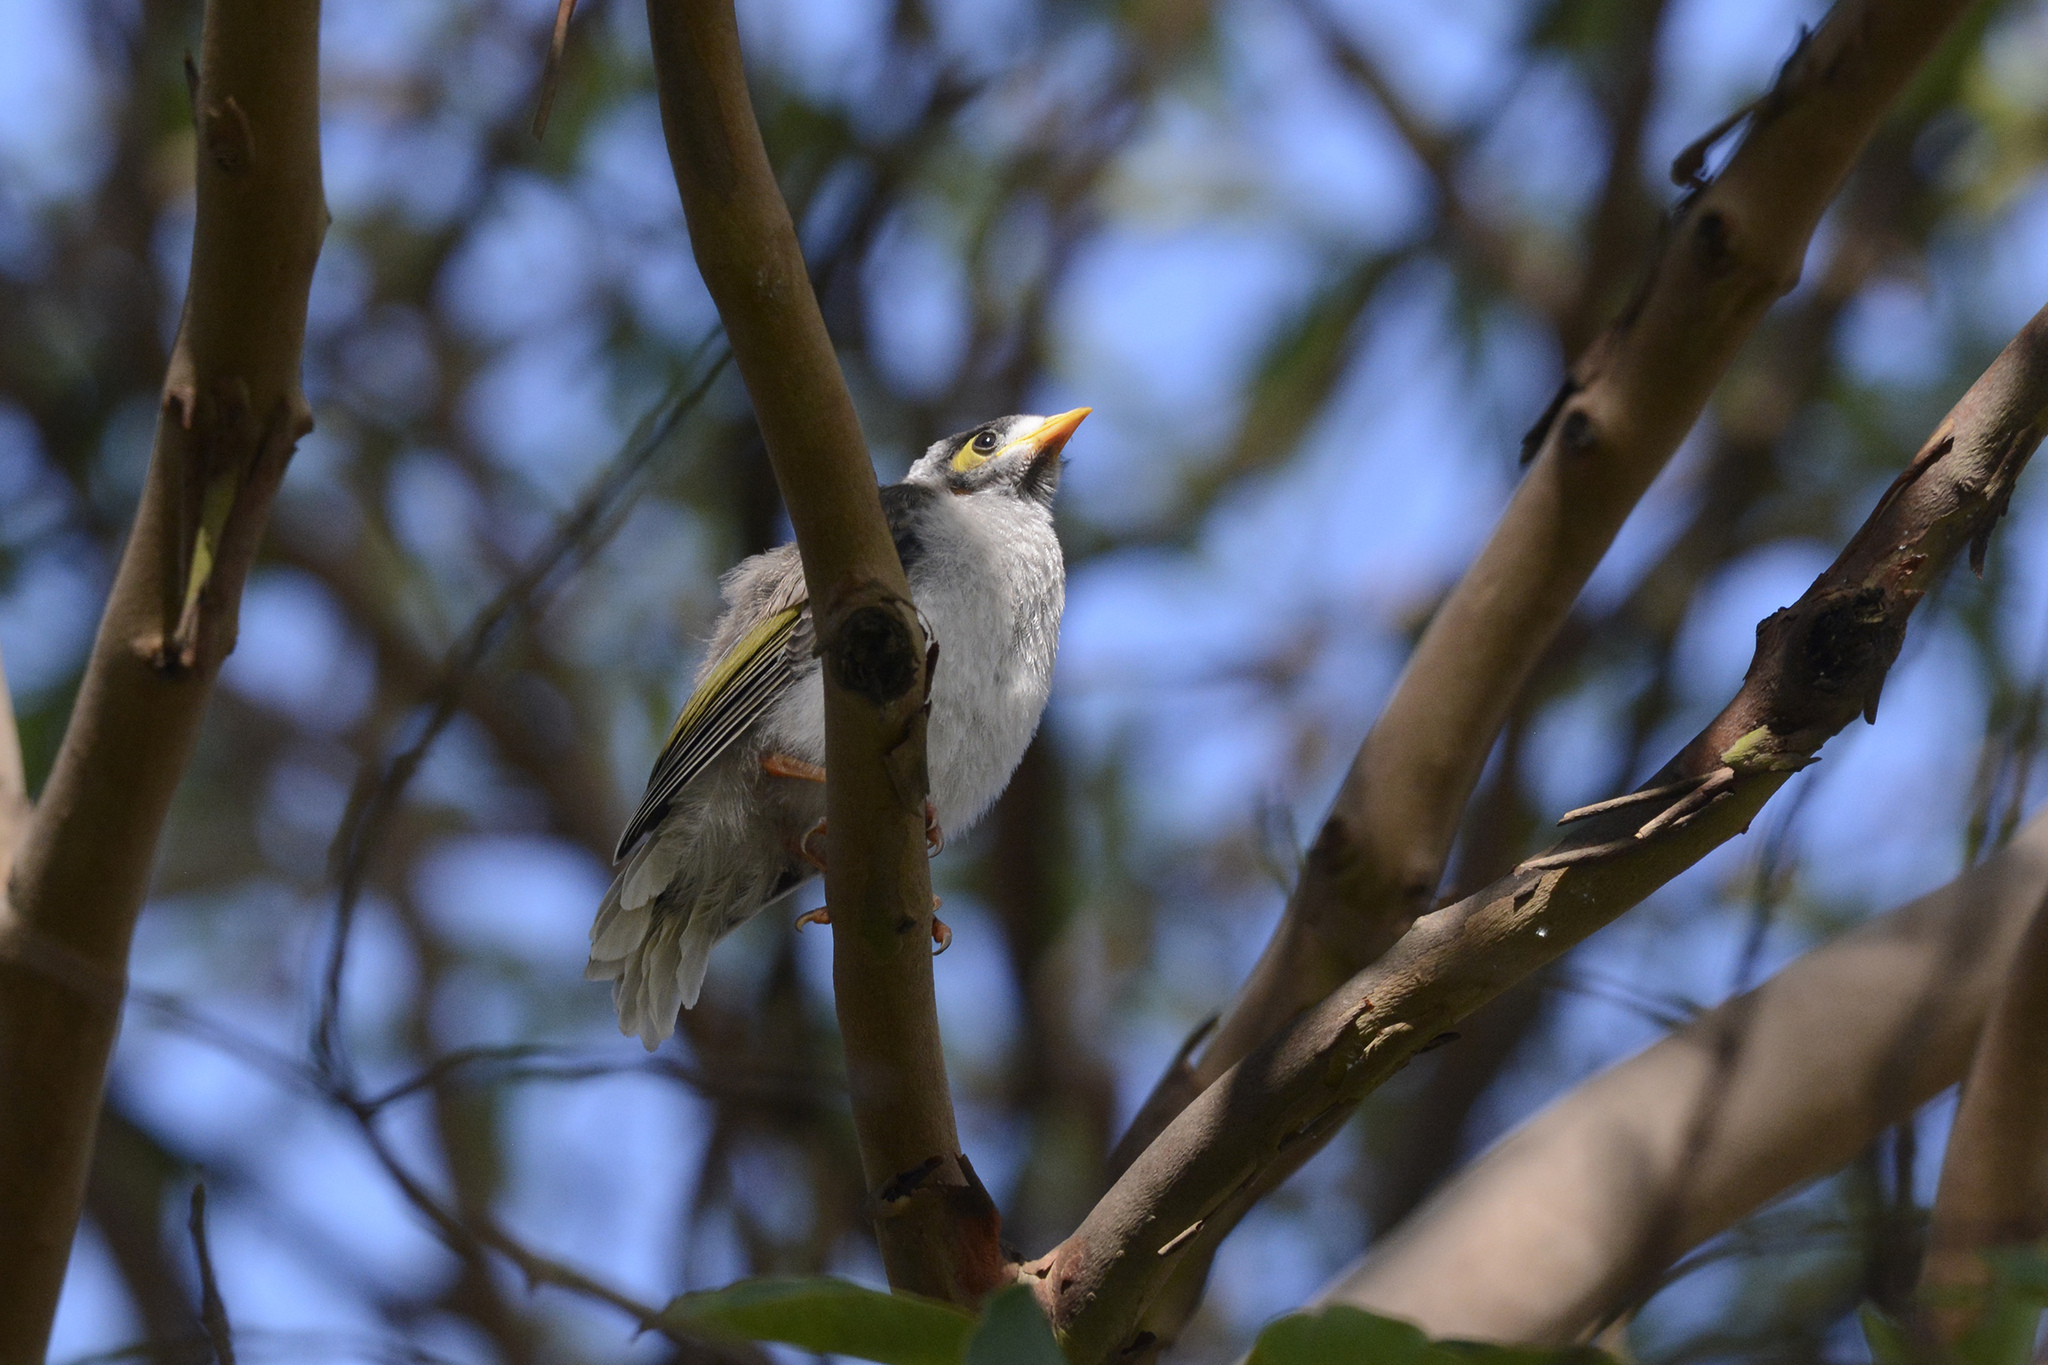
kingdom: Animalia
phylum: Chordata
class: Aves
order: Passeriformes
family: Meliphagidae
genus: Manorina
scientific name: Manorina melanocephala
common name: Noisy miner
